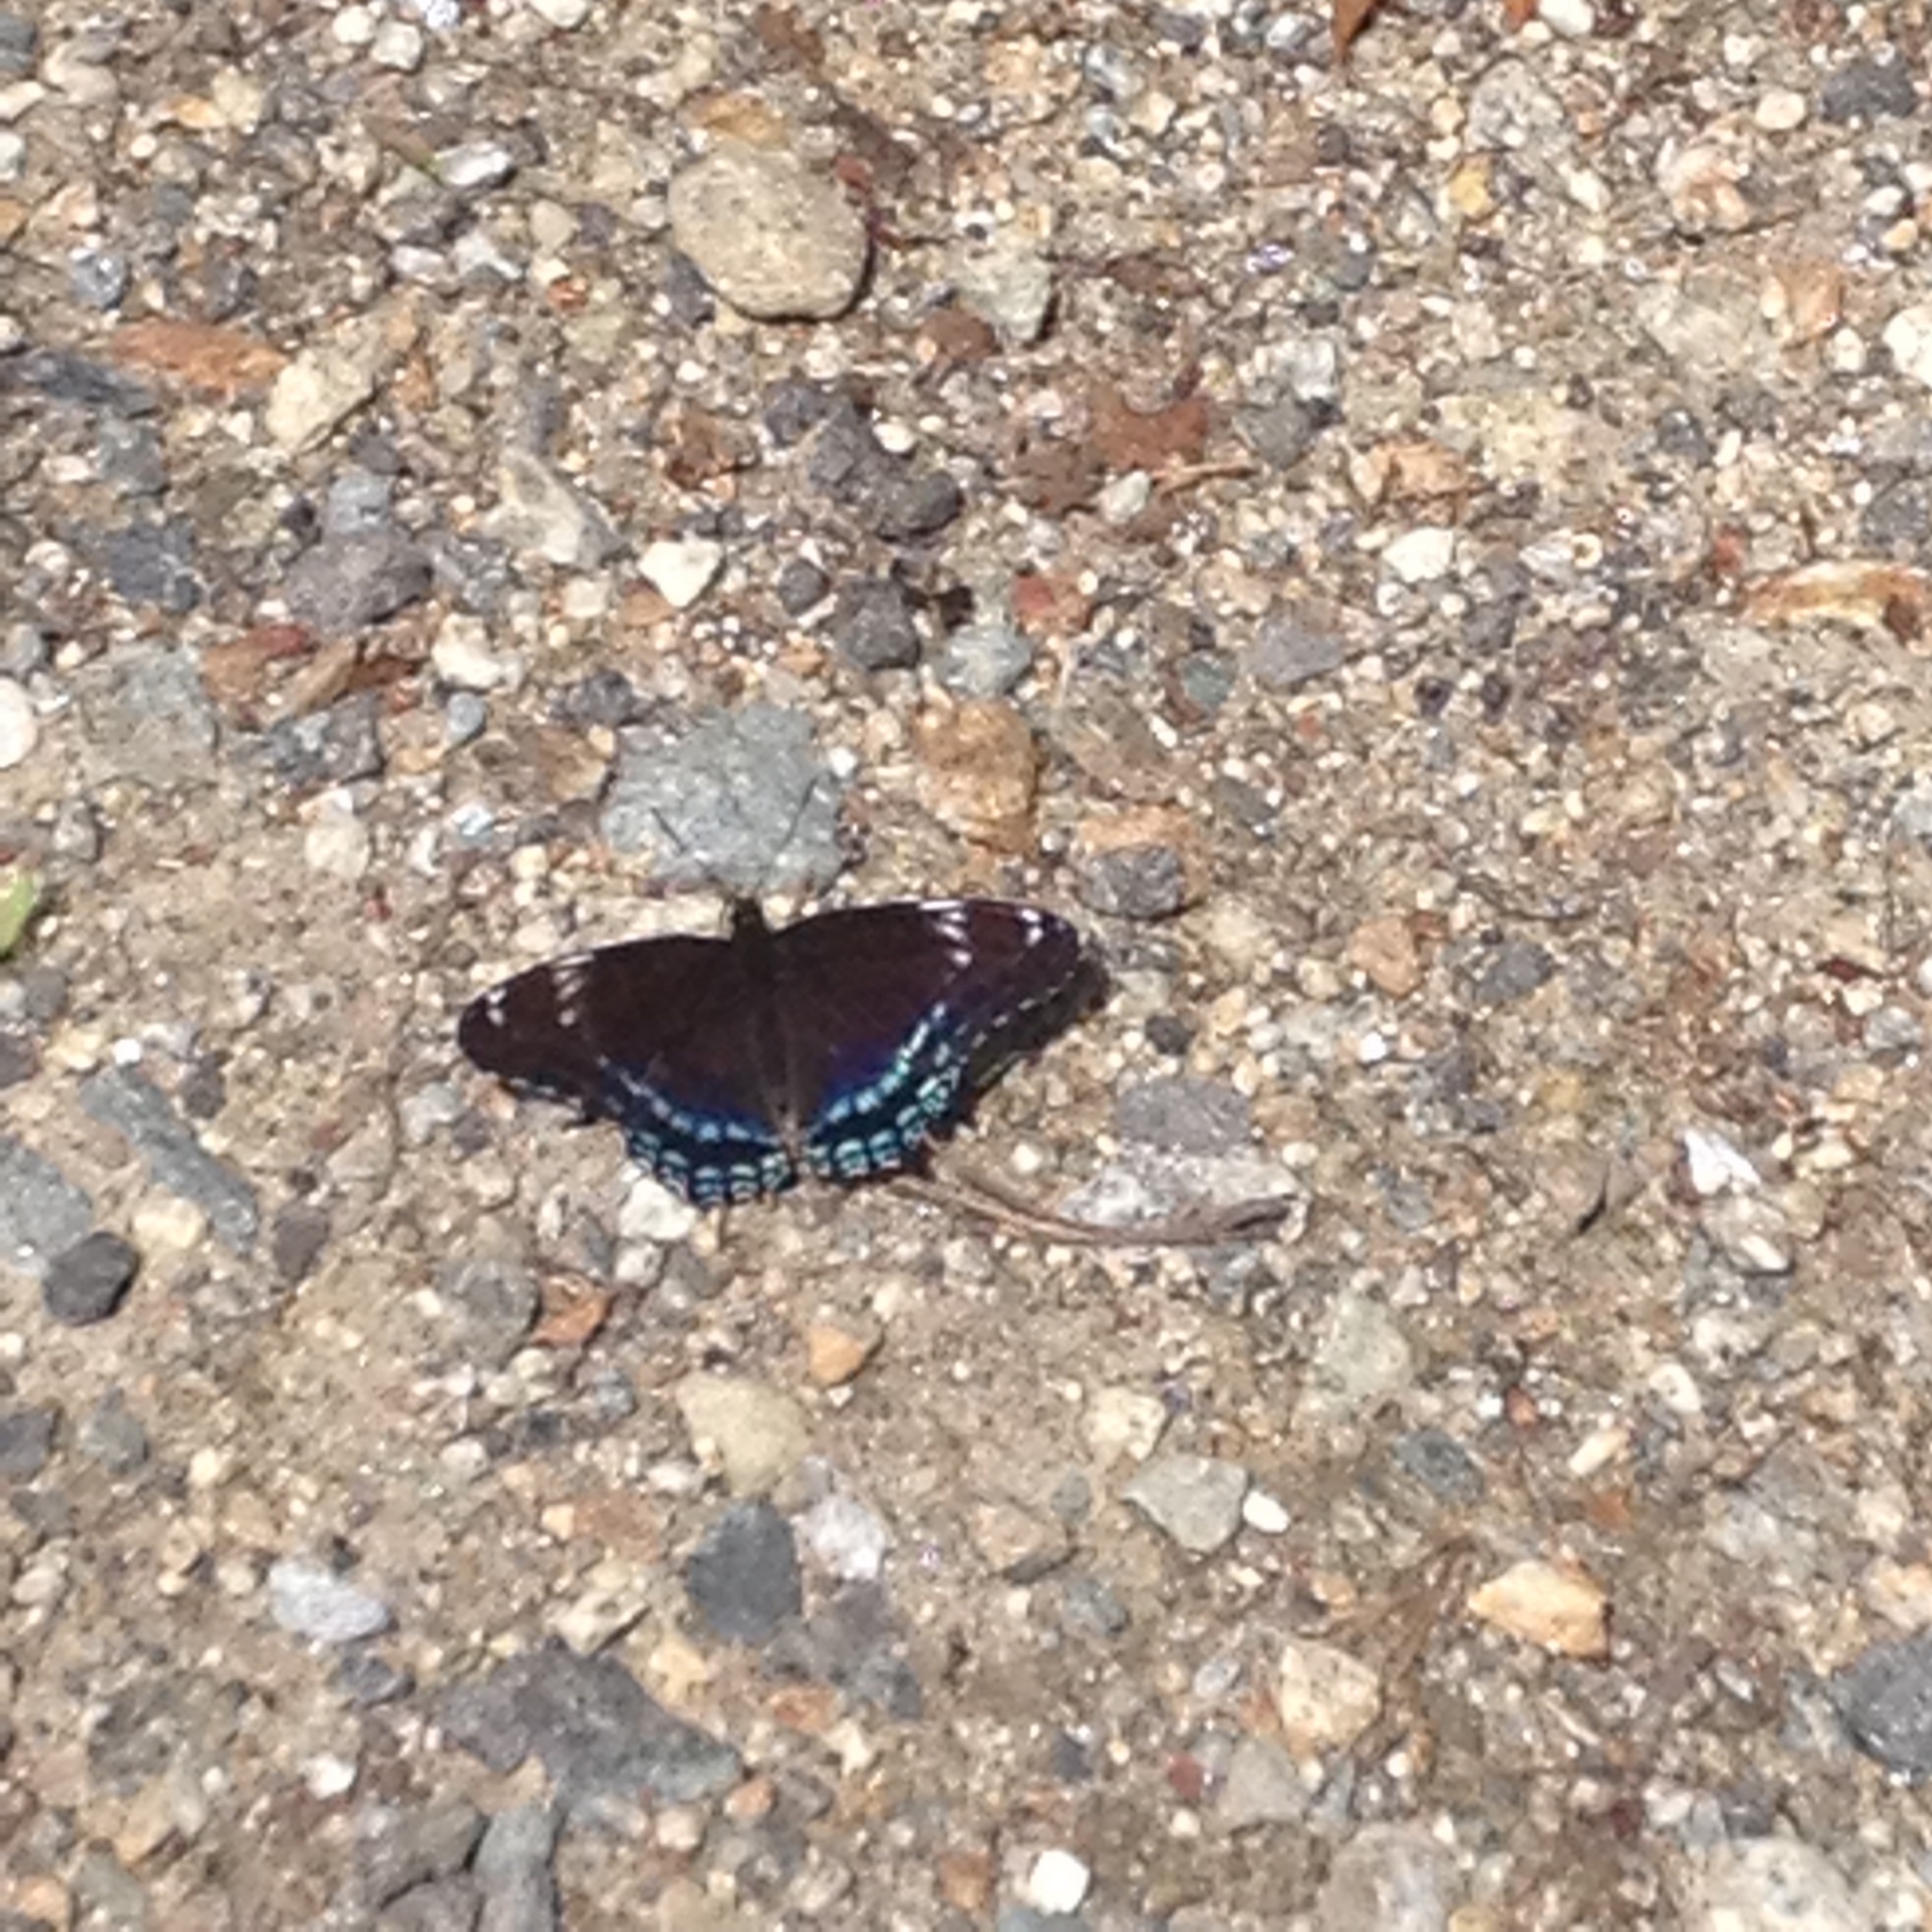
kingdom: Animalia
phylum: Arthropoda
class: Insecta
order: Lepidoptera
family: Nymphalidae
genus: Limenitis
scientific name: Limenitis arthemis
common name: Red-spotted admiral
